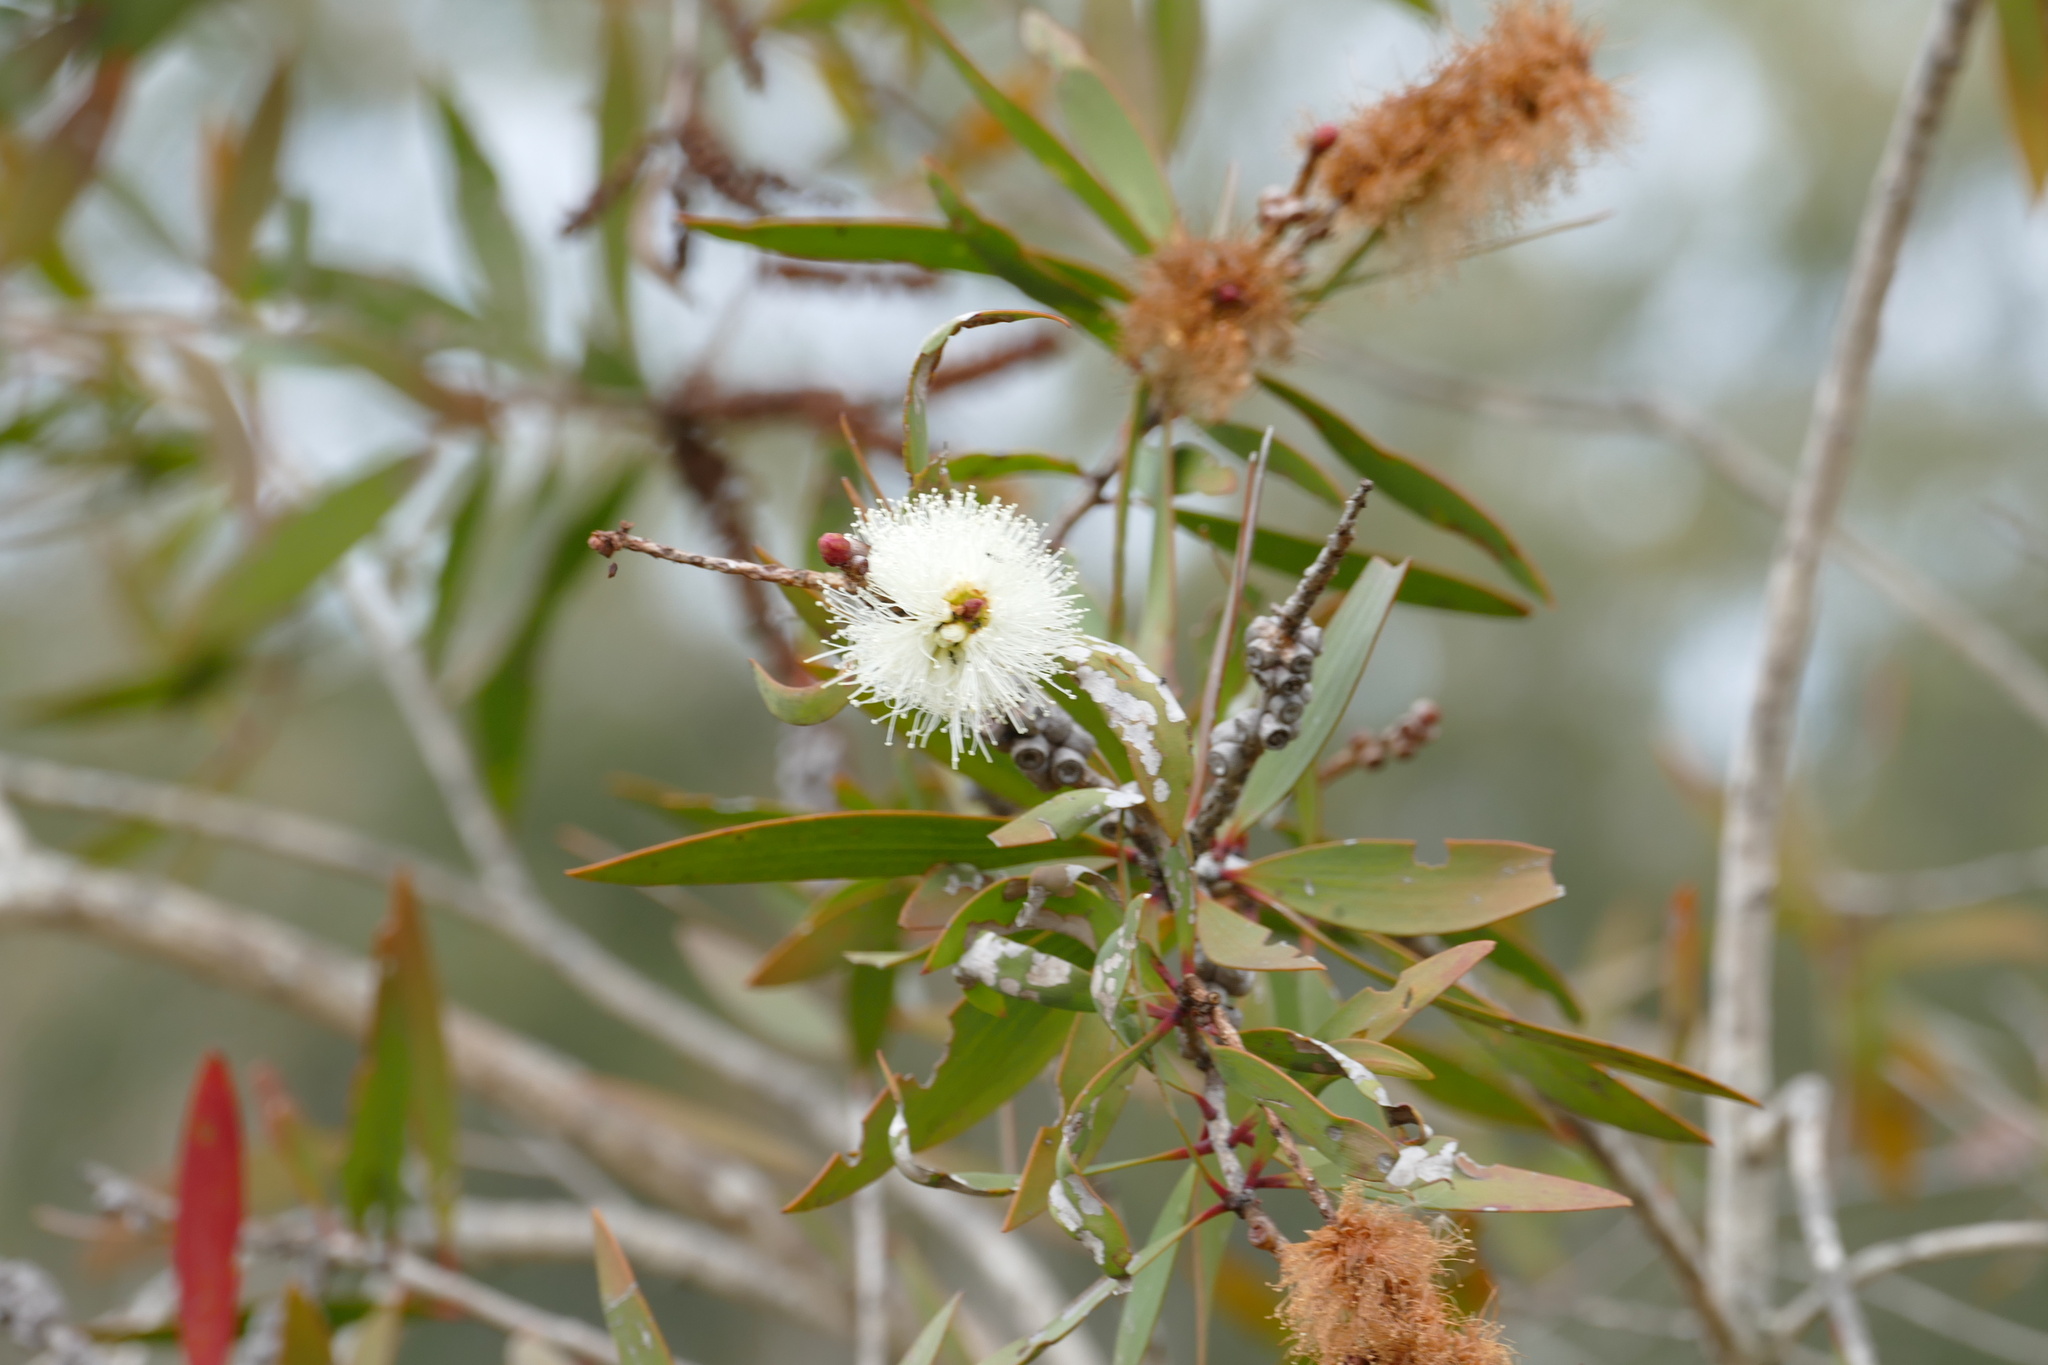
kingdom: Plantae
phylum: Tracheophyta
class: Magnoliopsida
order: Myrtales
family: Myrtaceae
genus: Melaleuca
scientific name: Melaleuca quinquenervia
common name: Punktree
